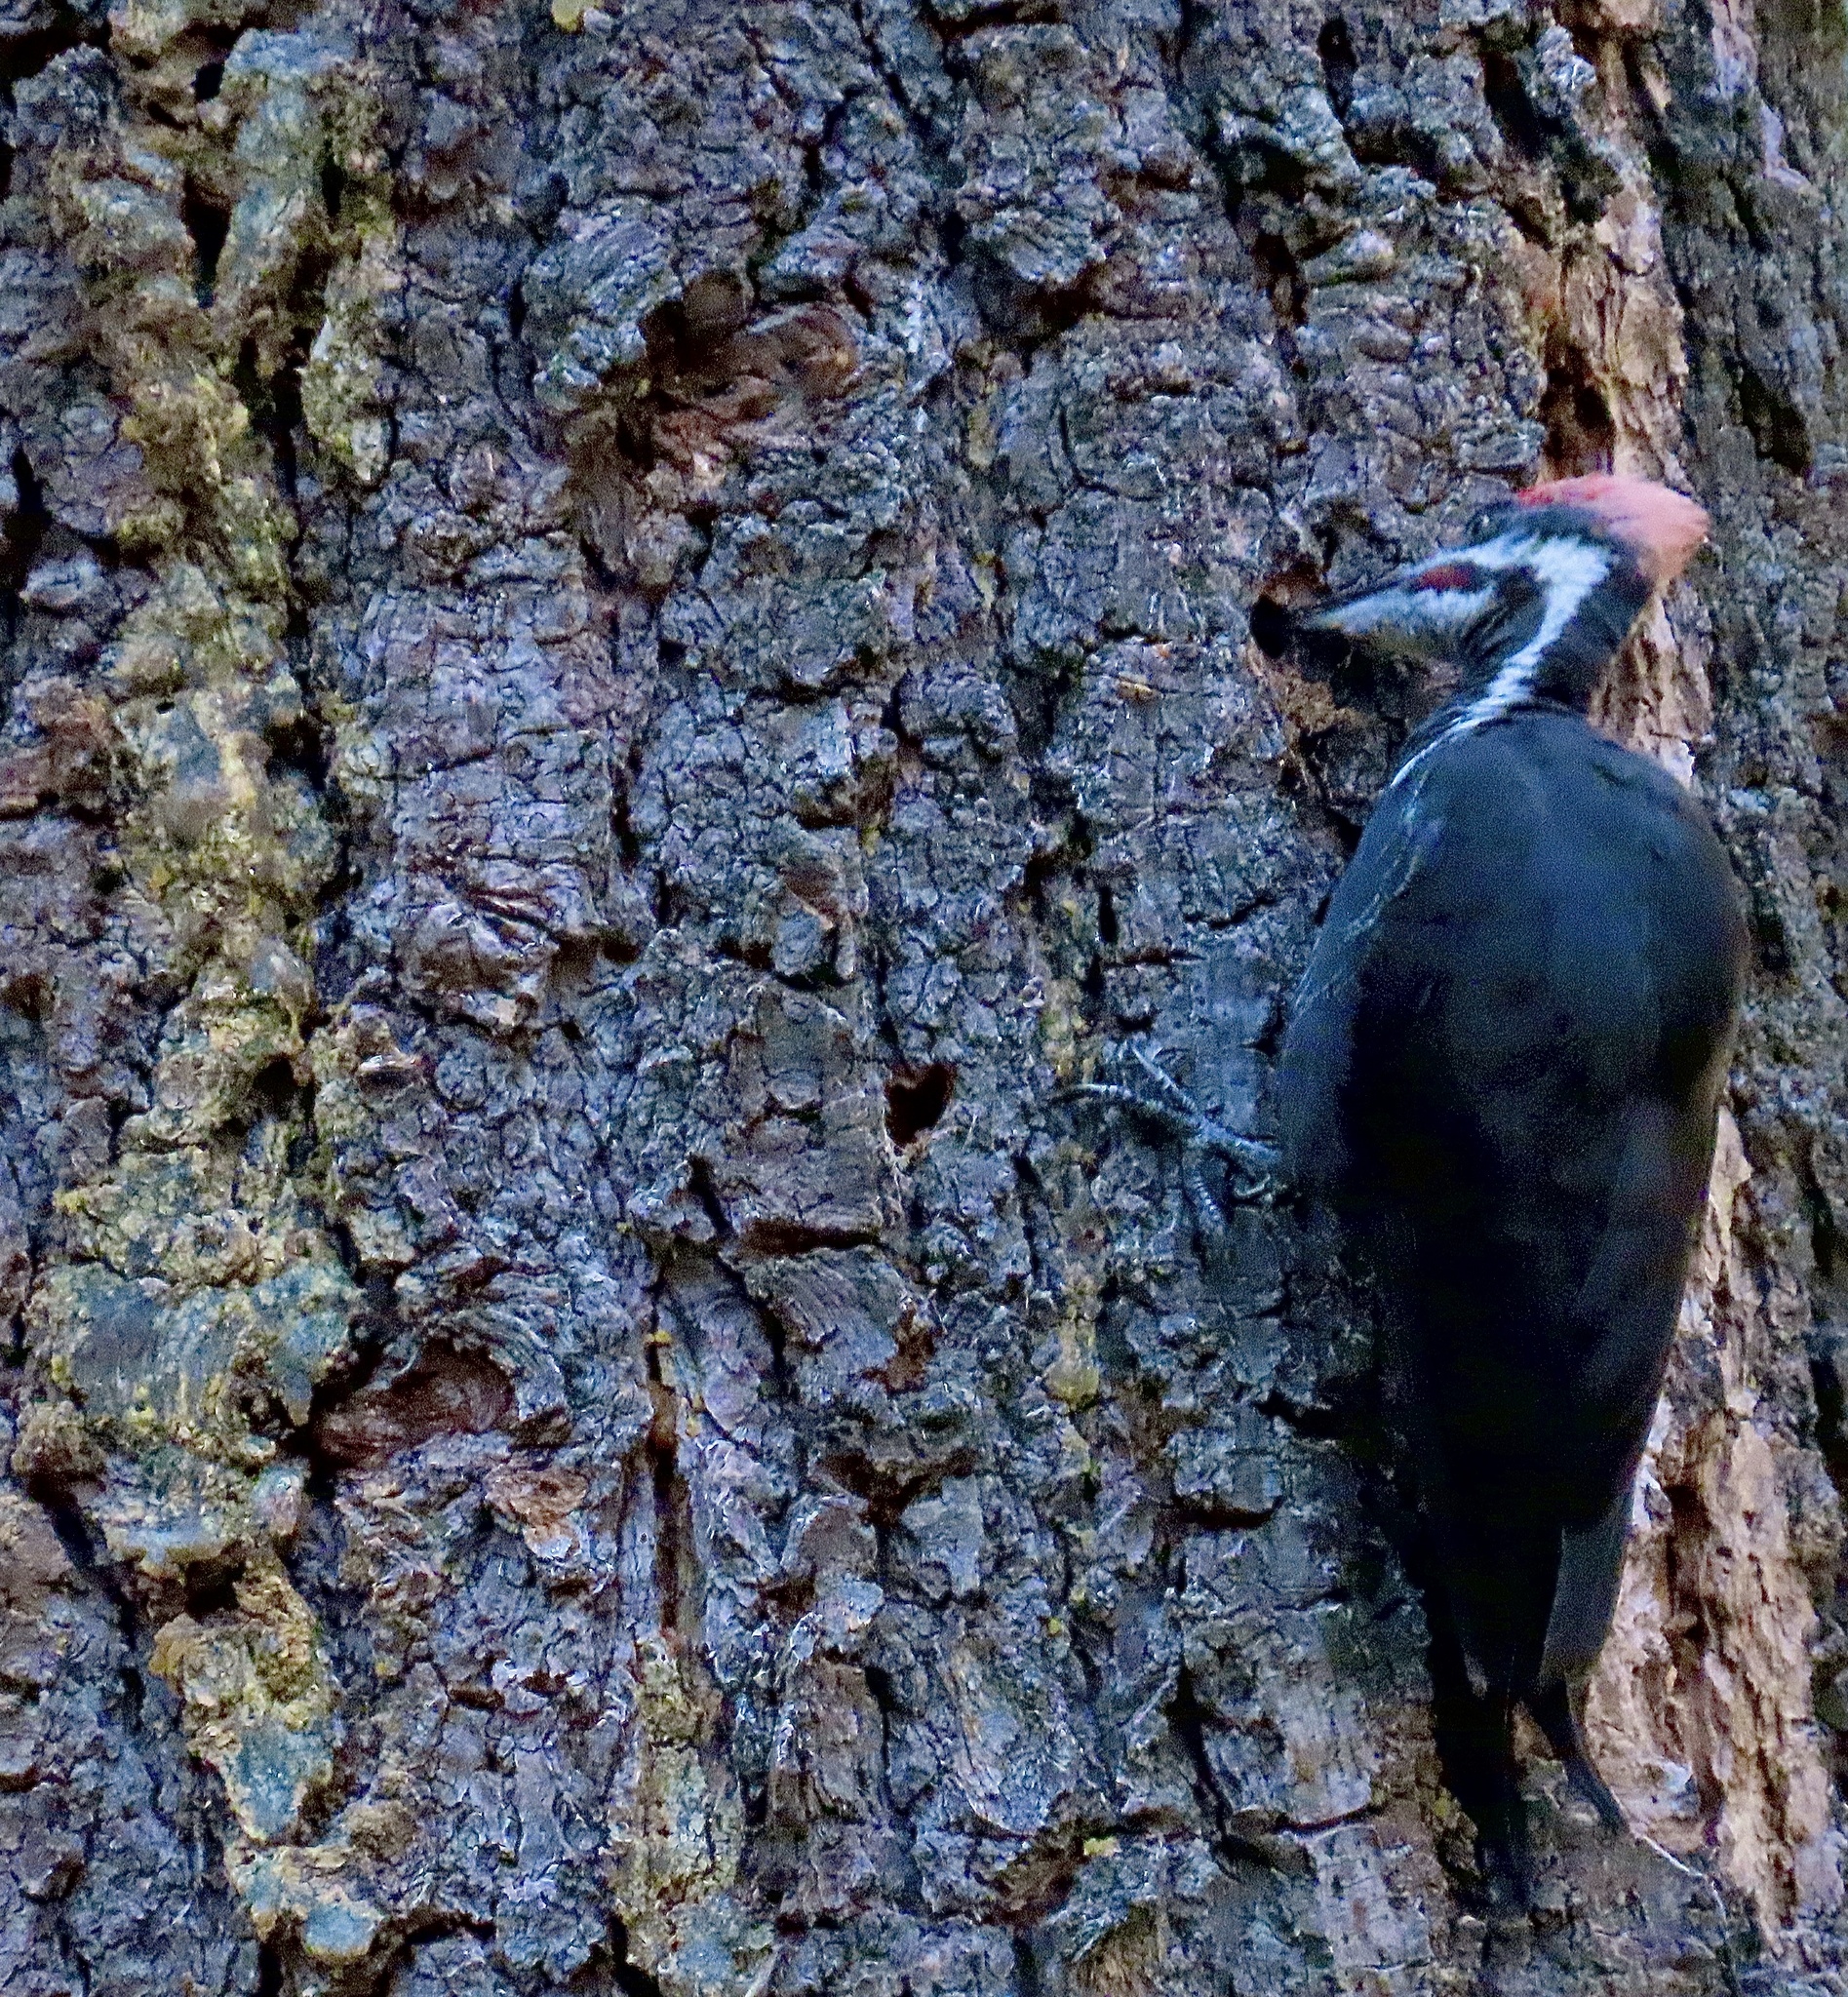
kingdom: Animalia
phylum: Chordata
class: Aves
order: Piciformes
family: Picidae
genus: Dryocopus
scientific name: Dryocopus pileatus
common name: Pileated woodpecker
